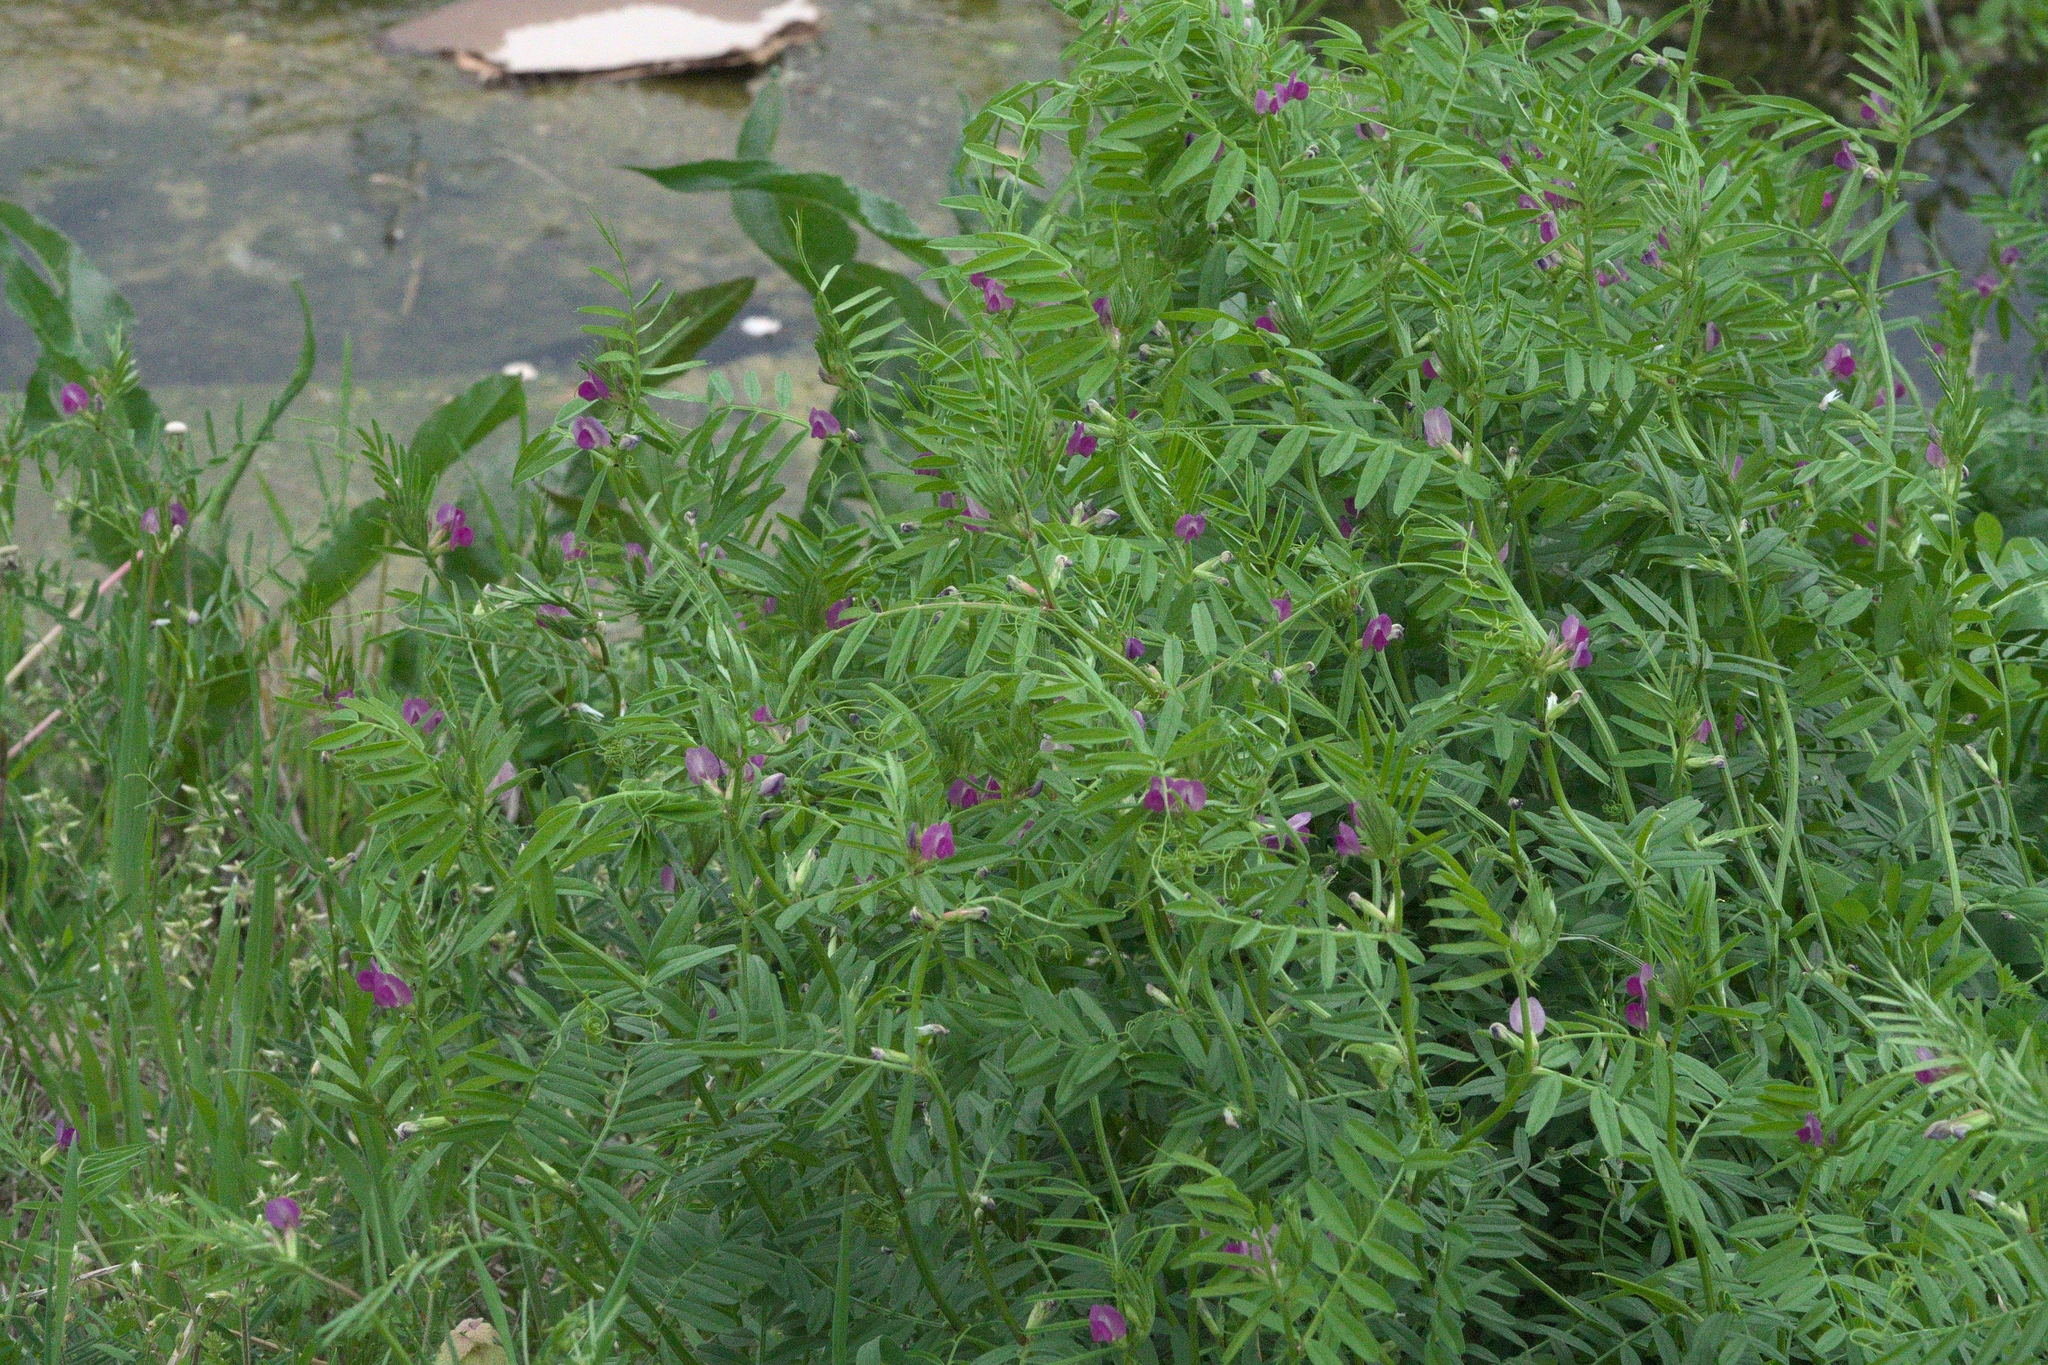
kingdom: Plantae
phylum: Tracheophyta
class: Magnoliopsida
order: Fabales
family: Fabaceae
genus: Vicia
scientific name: Vicia sativa
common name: Garden vetch
